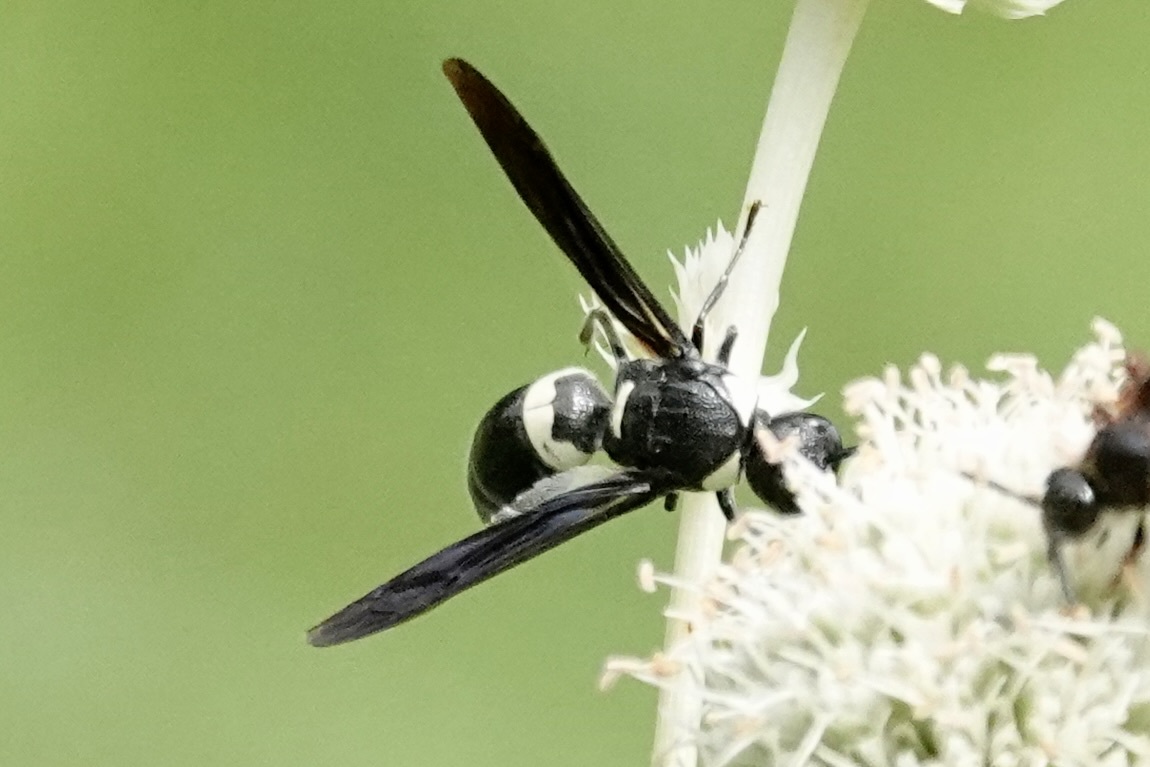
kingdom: Animalia
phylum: Arthropoda
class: Insecta
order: Hymenoptera
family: Eumenidae
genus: Monobia
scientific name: Monobia quadridens
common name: Four-toothed mason wasp
